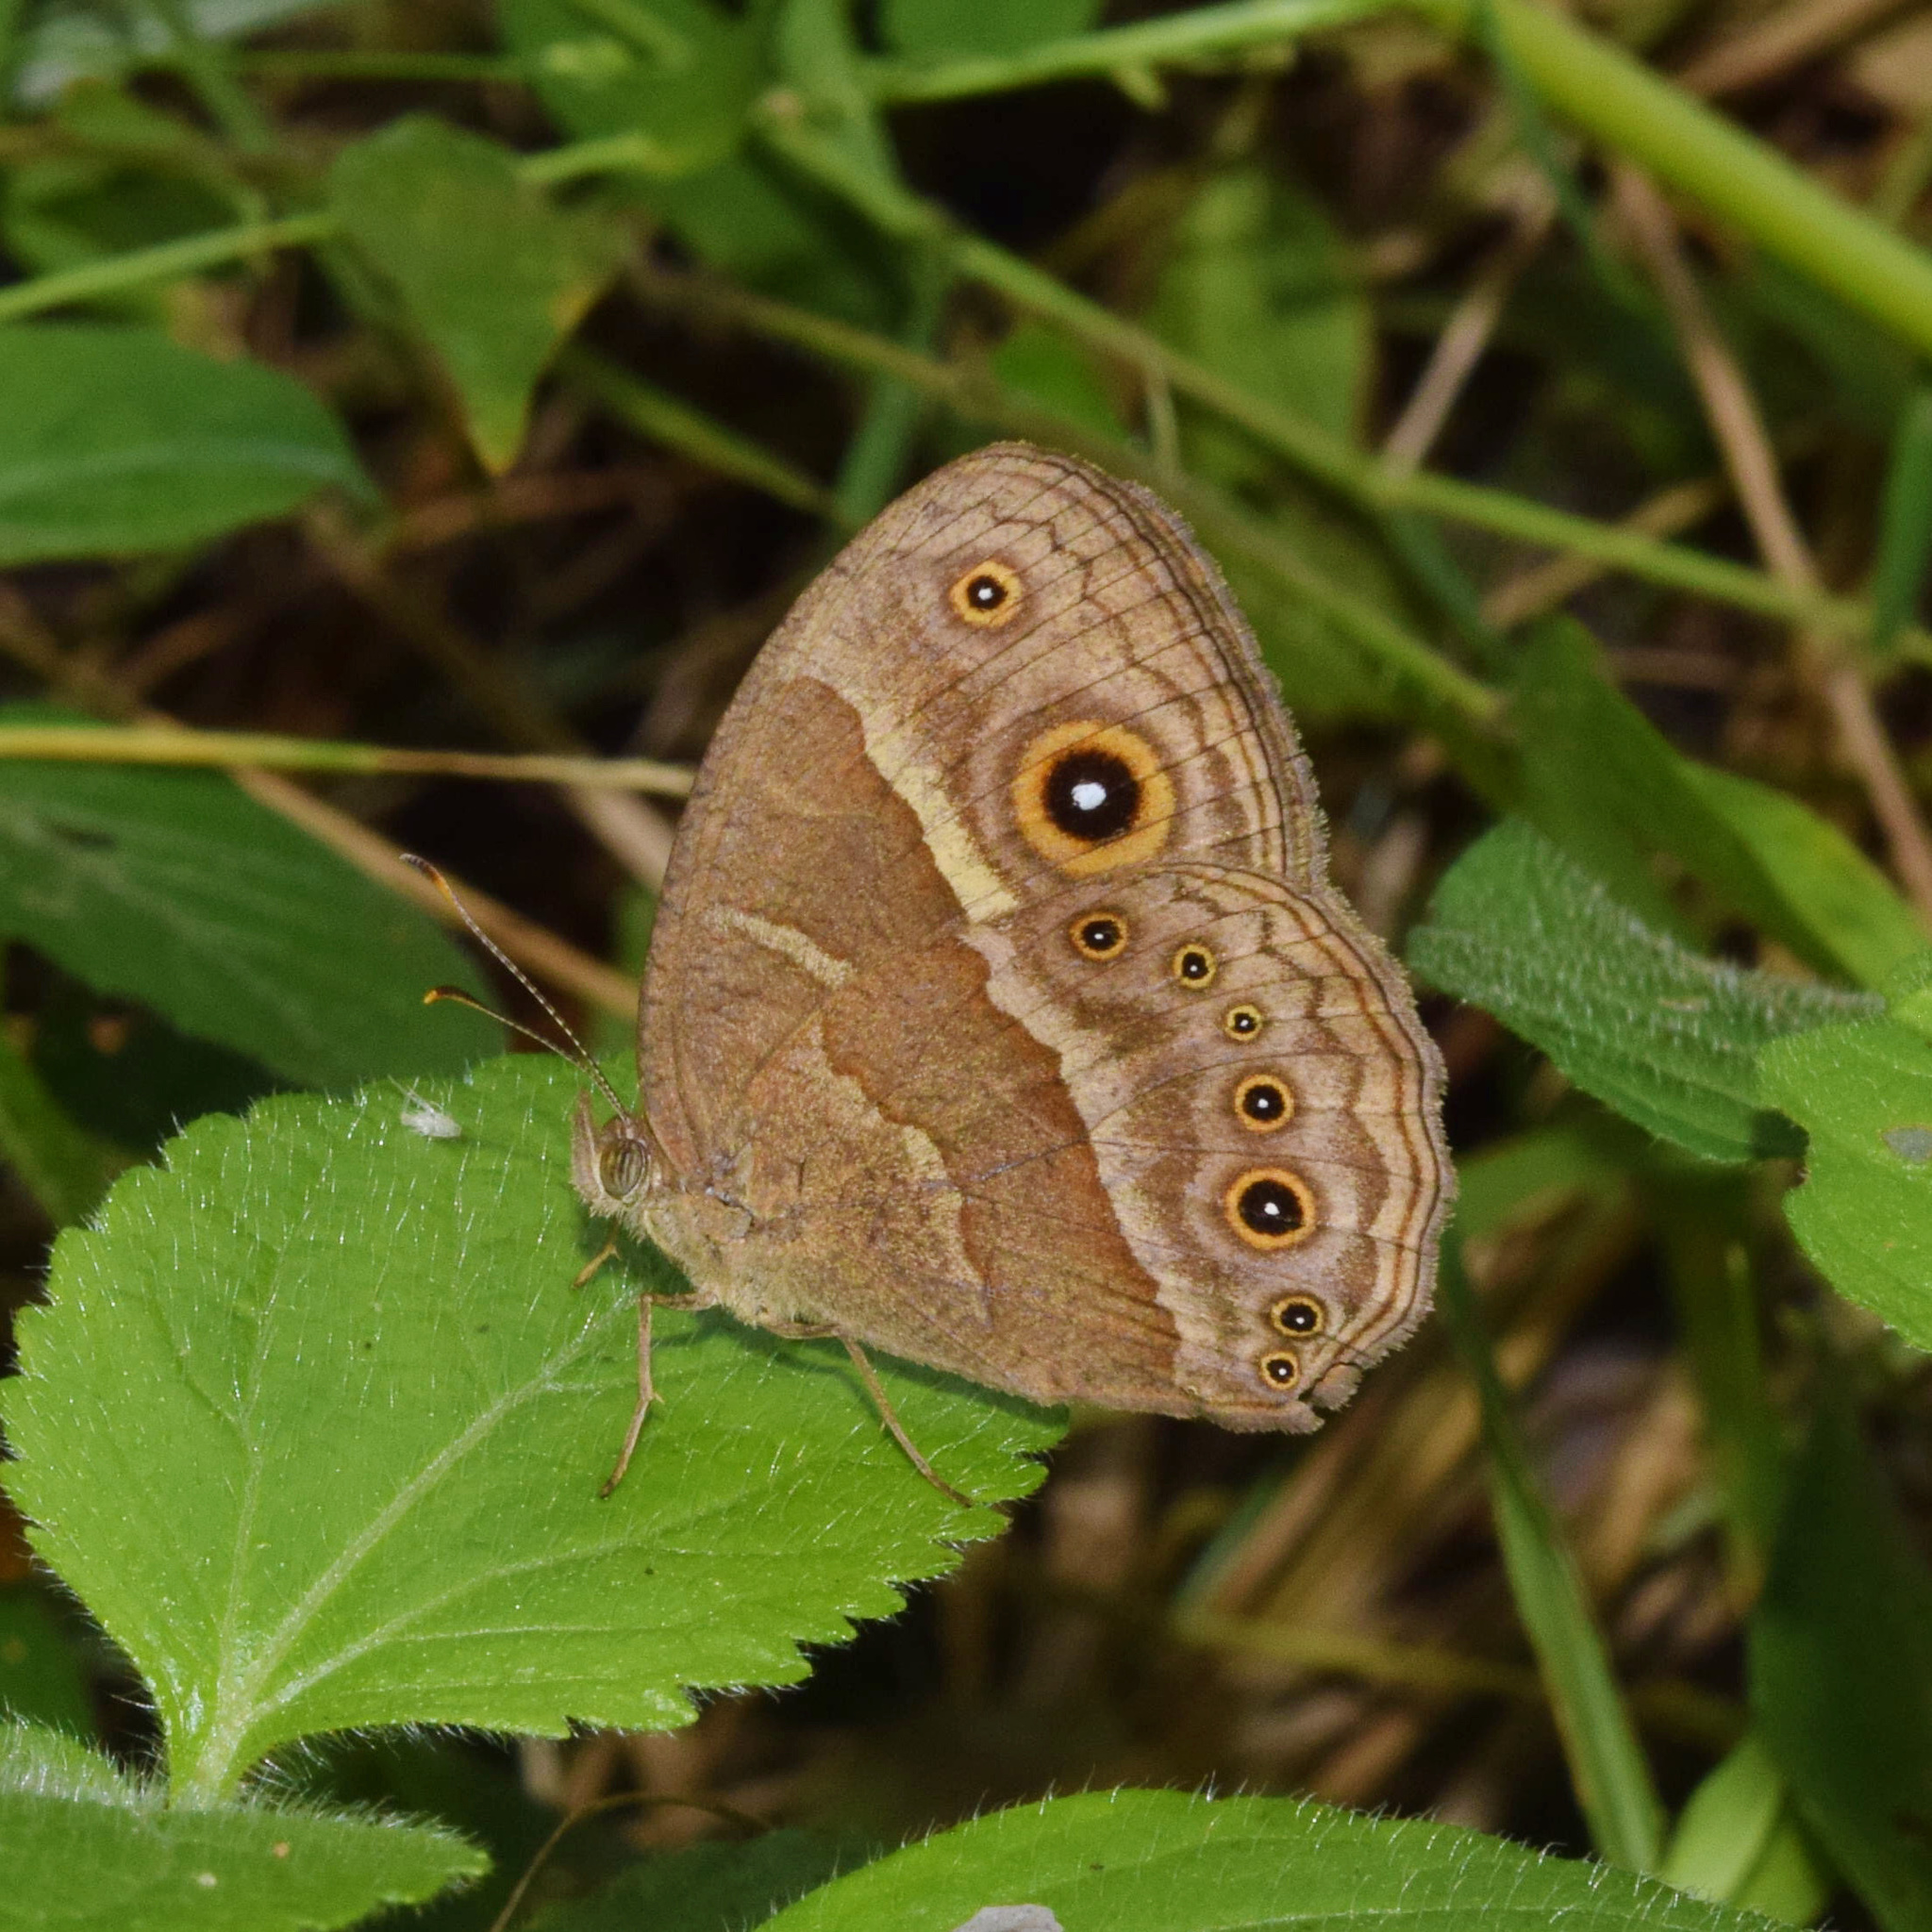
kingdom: Animalia
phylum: Arthropoda
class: Insecta
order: Lepidoptera
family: Nymphalidae
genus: Mycalesis
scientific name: Mycalesis anynana
